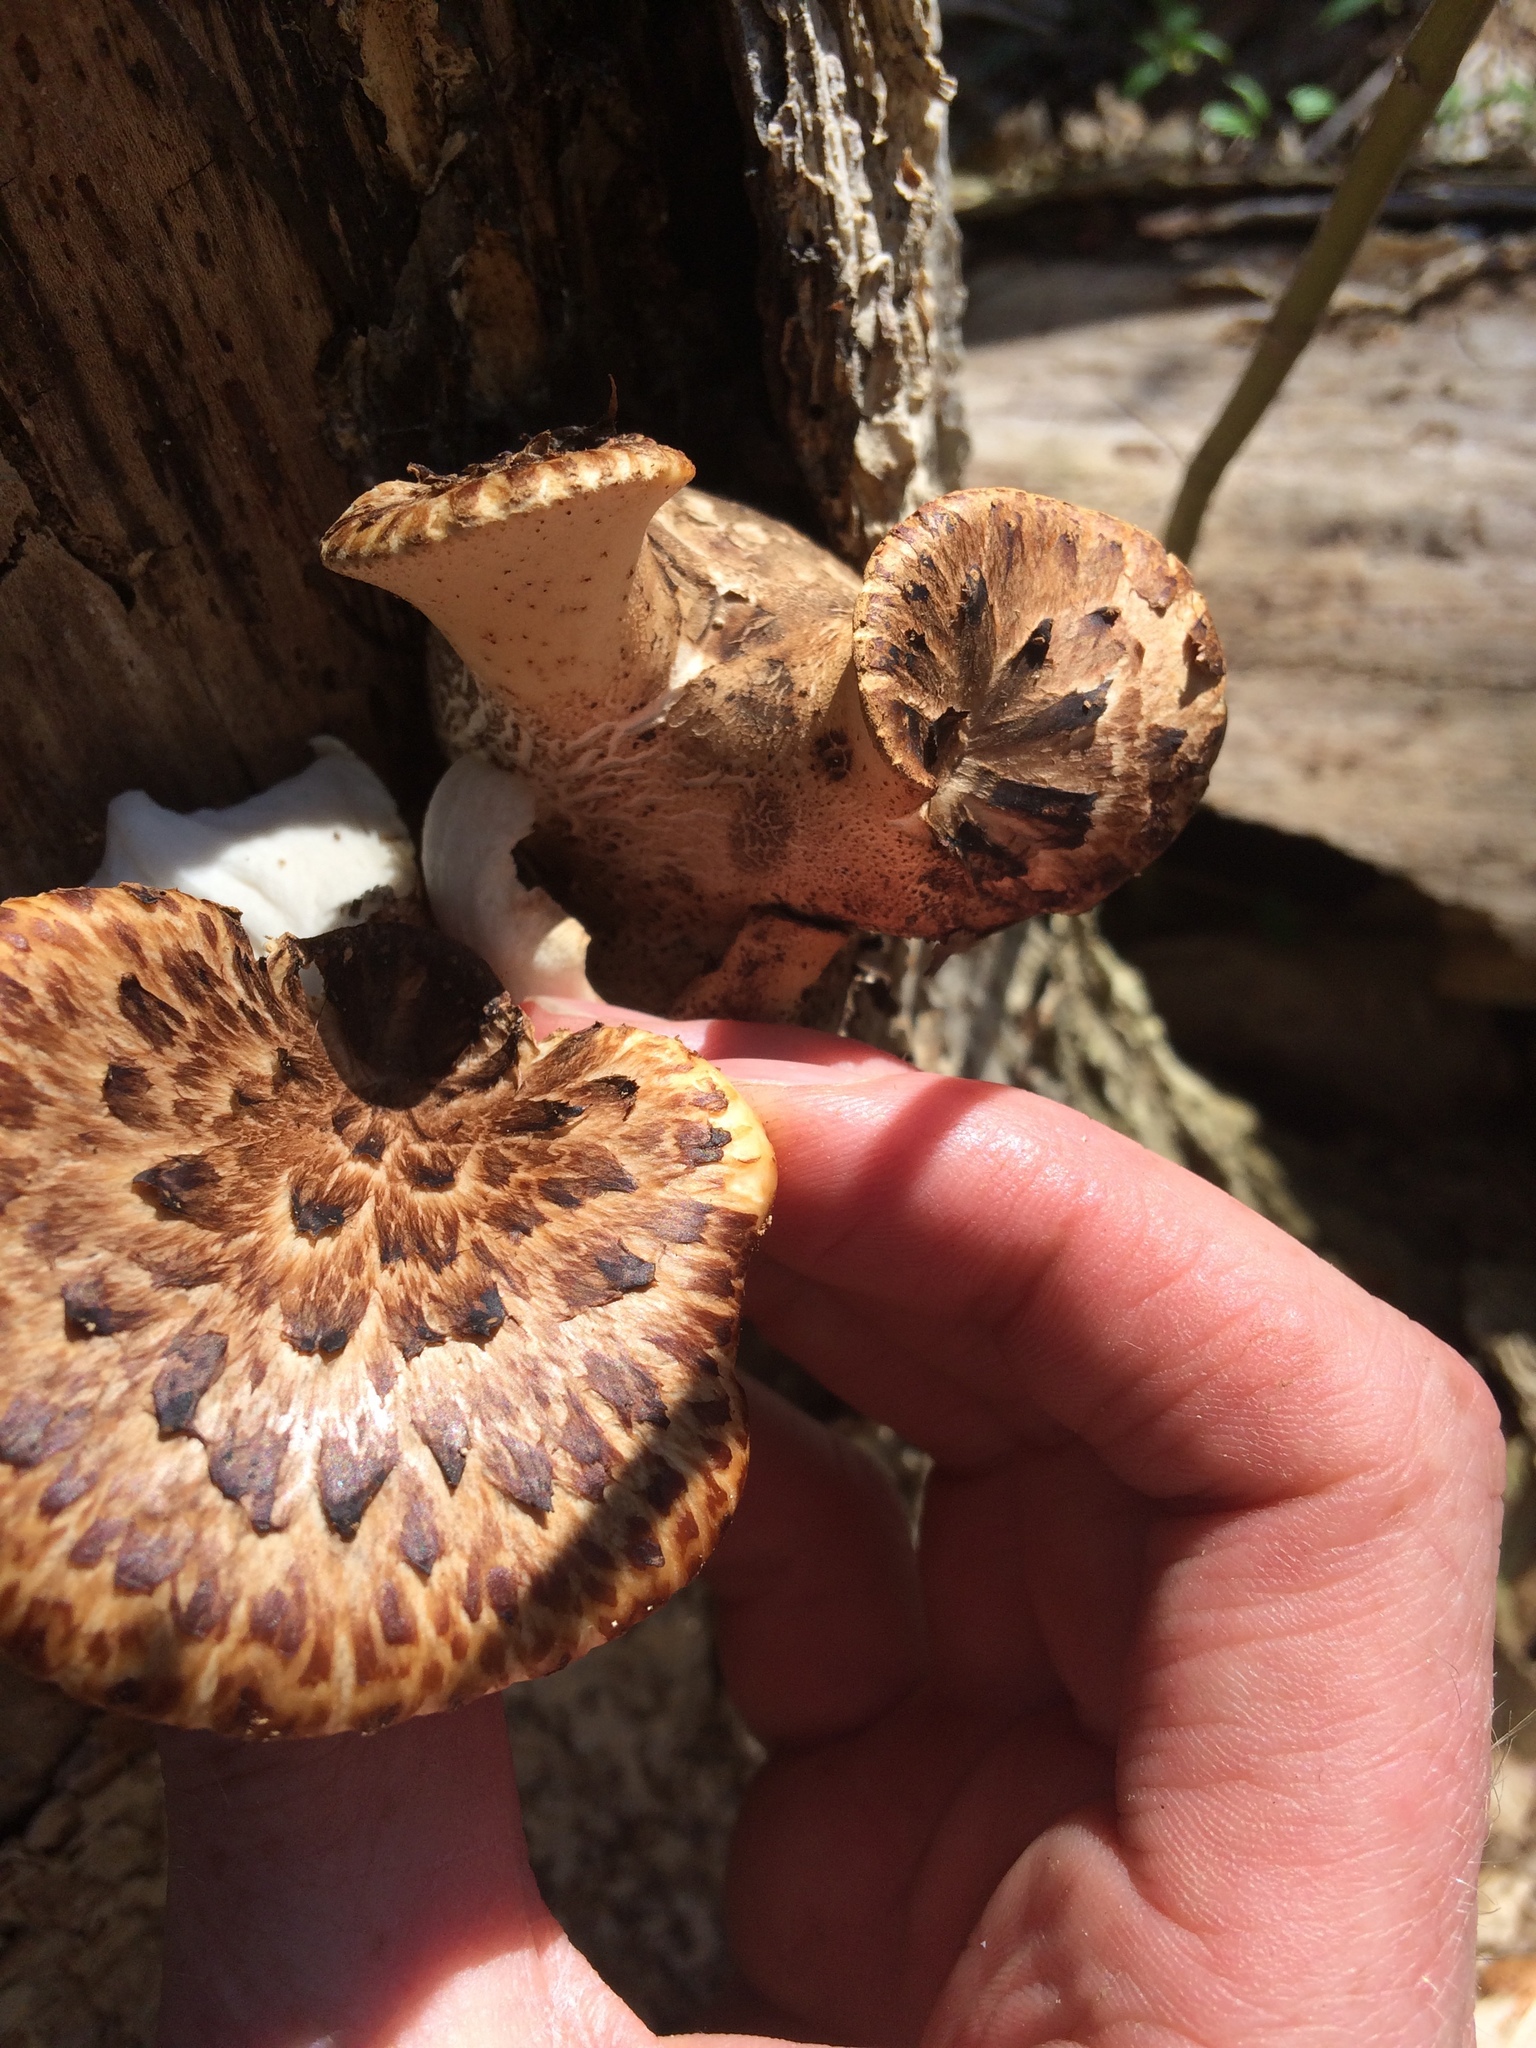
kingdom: Fungi
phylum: Basidiomycota
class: Agaricomycetes
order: Polyporales
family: Polyporaceae
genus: Cerioporus
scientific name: Cerioporus squamosus
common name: Dryad's saddle
